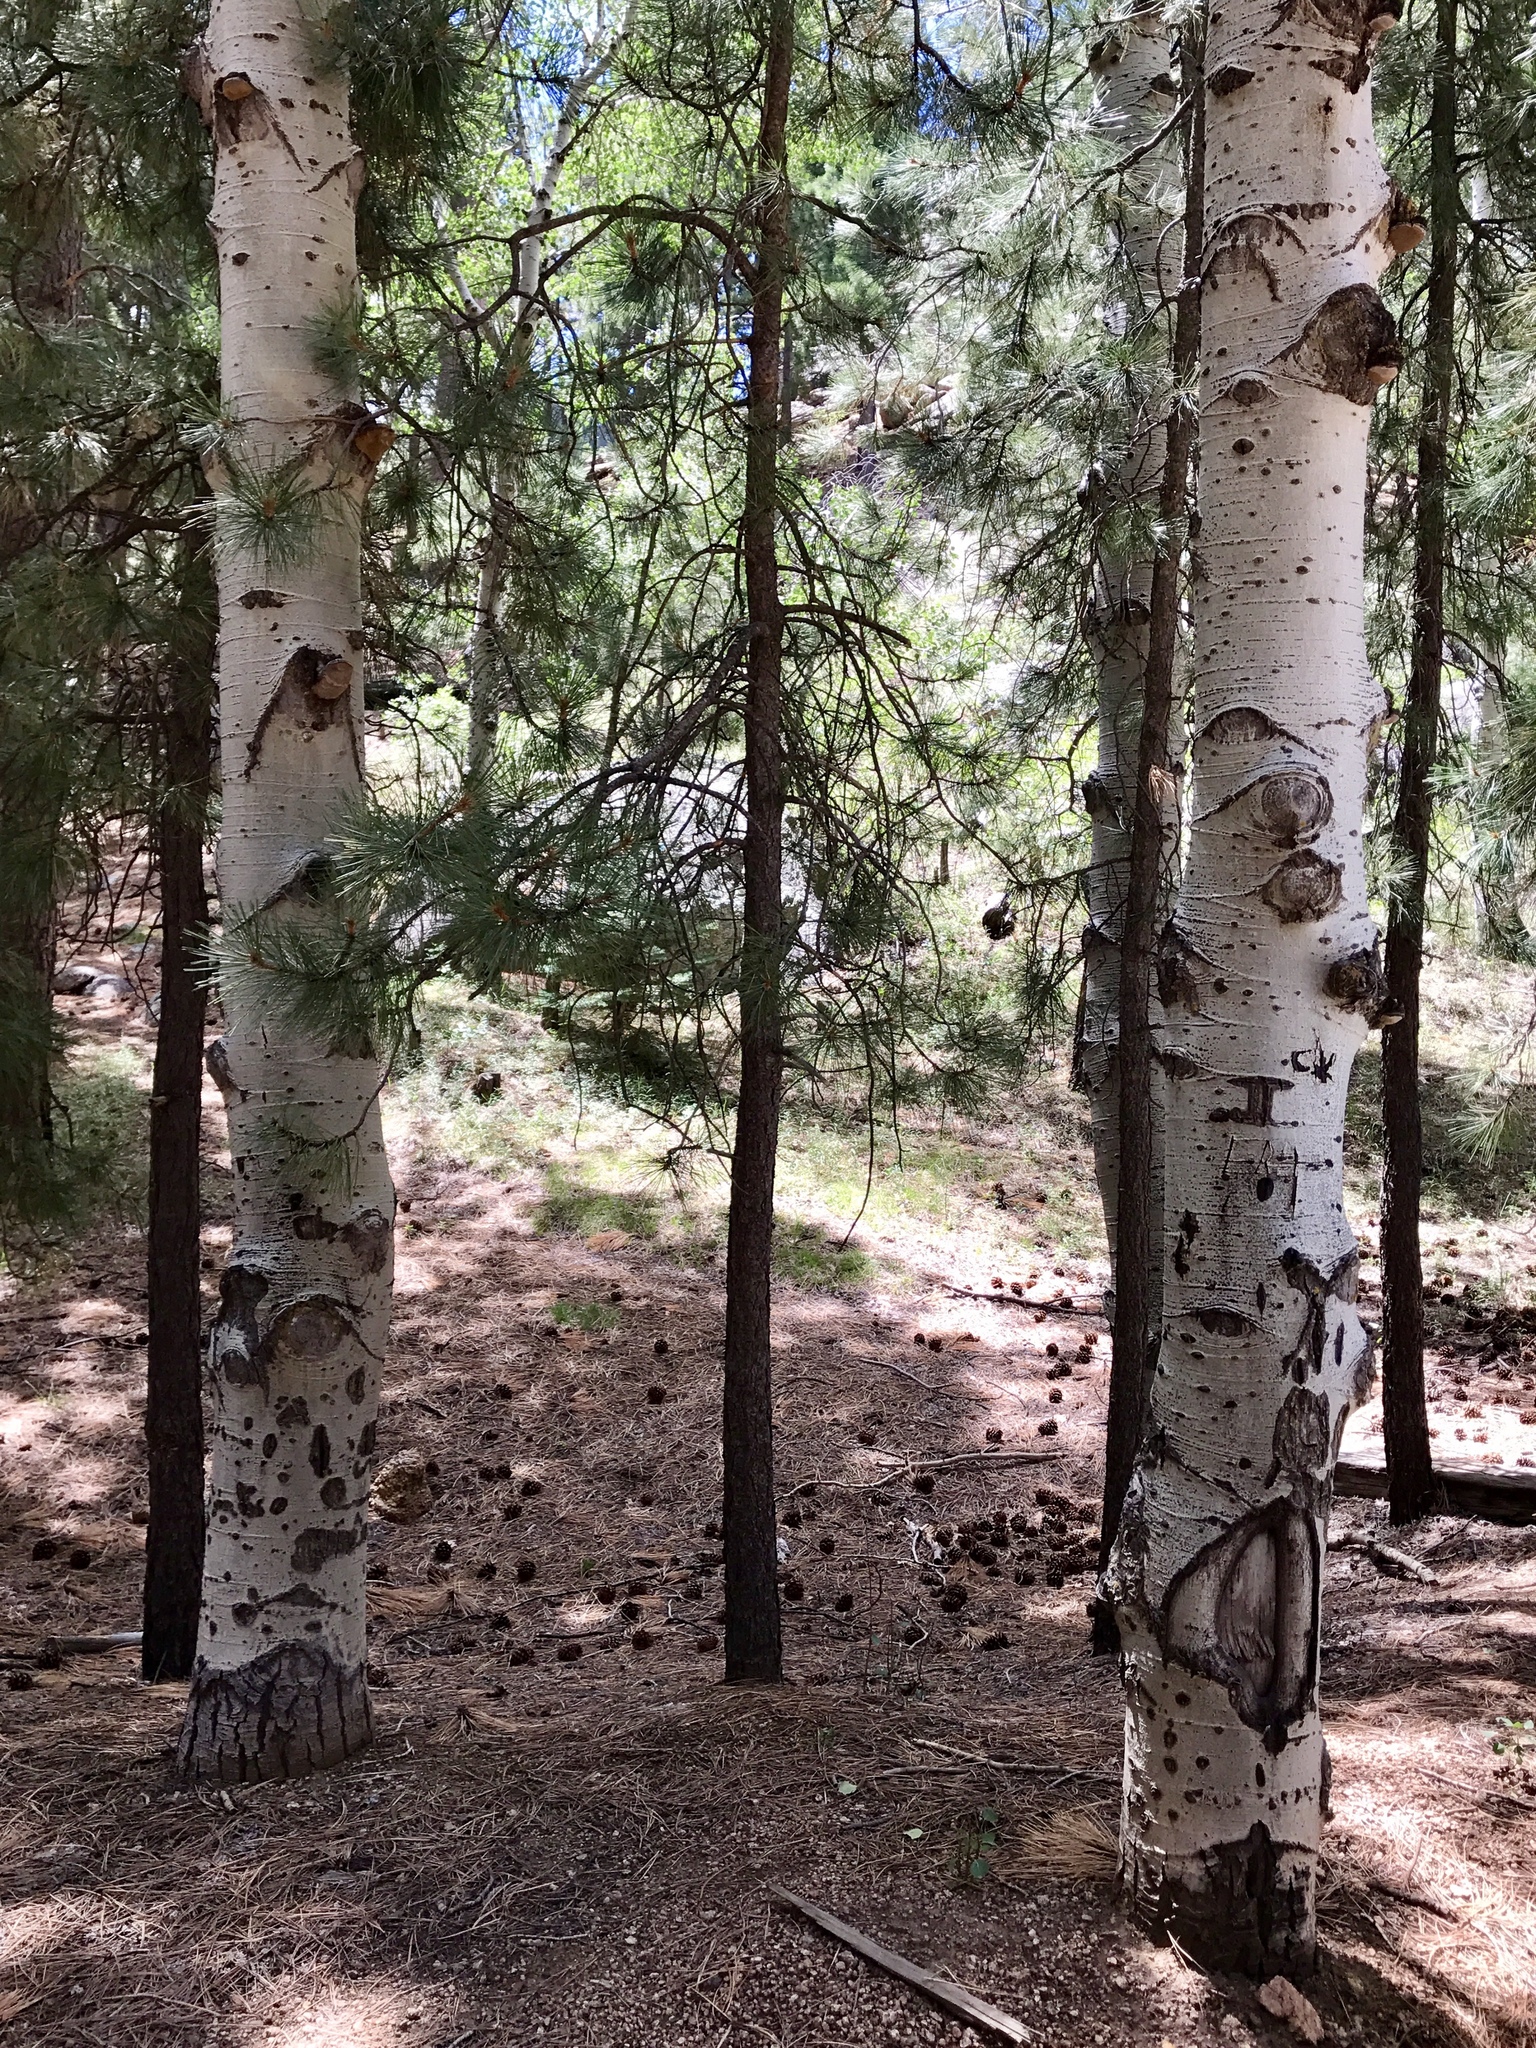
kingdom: Plantae
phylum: Tracheophyta
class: Magnoliopsida
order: Malpighiales
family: Salicaceae
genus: Populus
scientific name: Populus tremuloides
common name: Quaking aspen
